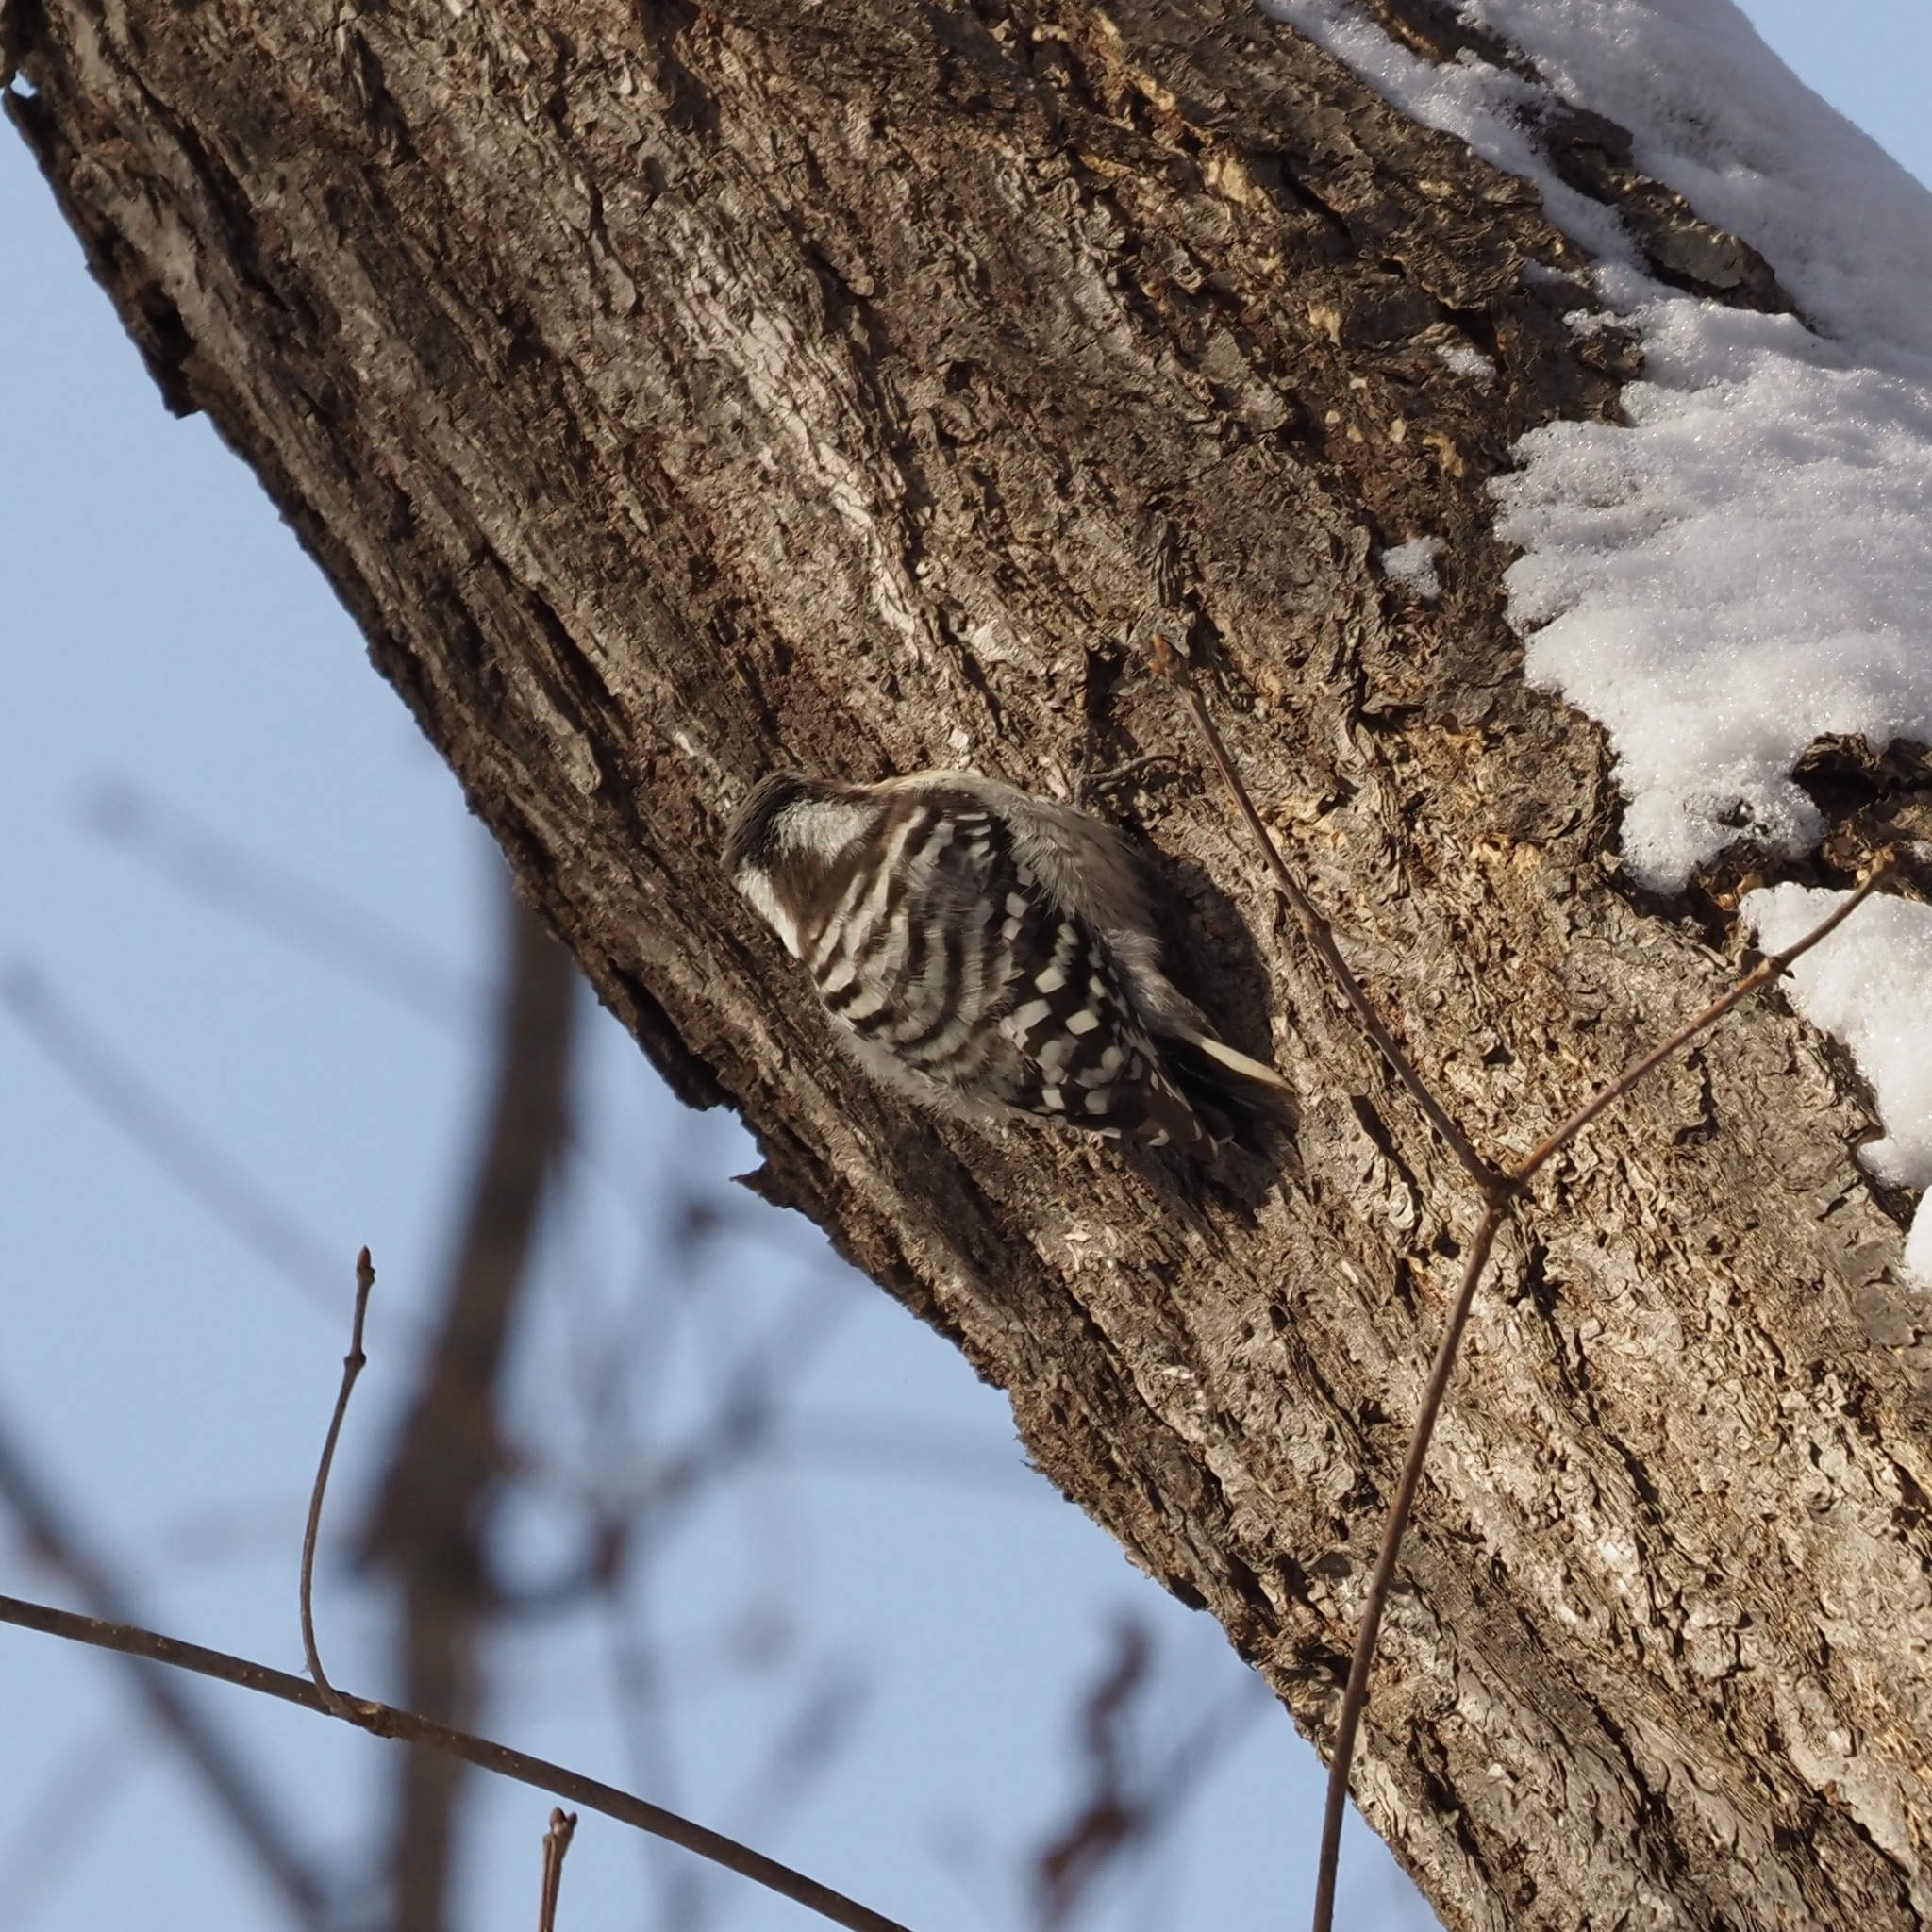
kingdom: Animalia
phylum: Chordata
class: Aves
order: Piciformes
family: Picidae
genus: Yungipicus
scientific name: Yungipicus kizuki
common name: Japanese pygmy woodpecker
